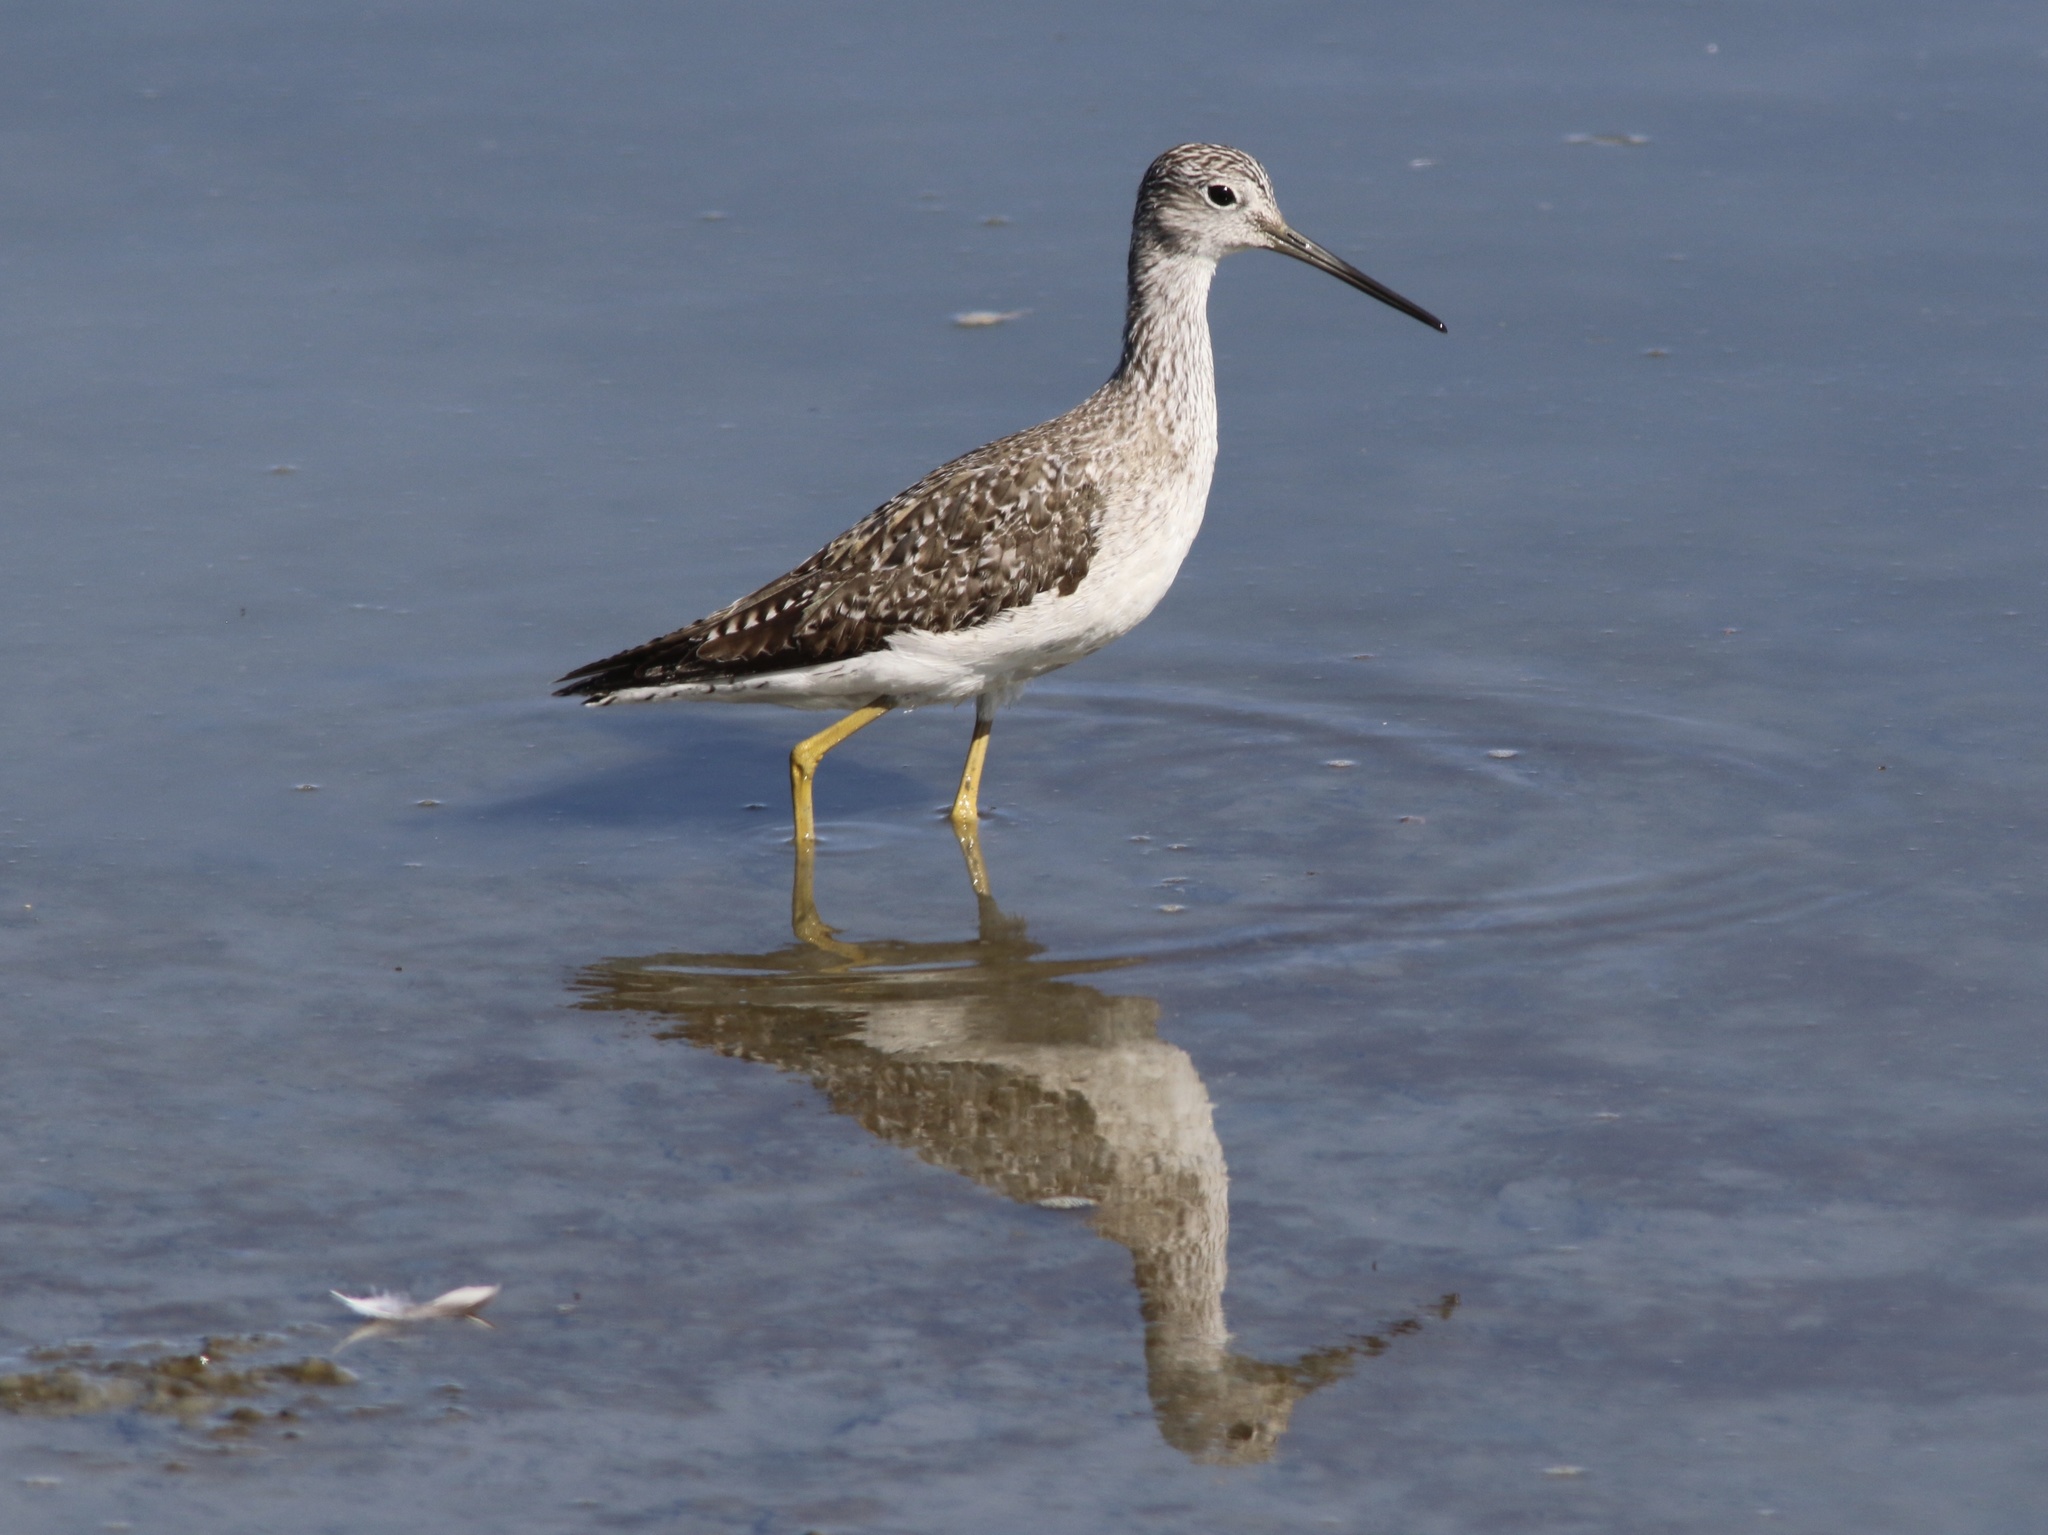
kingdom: Animalia
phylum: Chordata
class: Aves
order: Charadriiformes
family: Scolopacidae
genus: Tringa
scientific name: Tringa melanoleuca
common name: Greater yellowlegs
